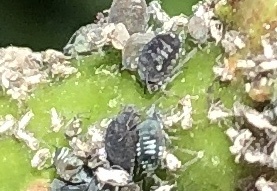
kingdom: Animalia
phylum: Arthropoda
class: Insecta
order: Hemiptera
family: Aphididae
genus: Aphis
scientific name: Aphis sambuci
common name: Elder aphid
